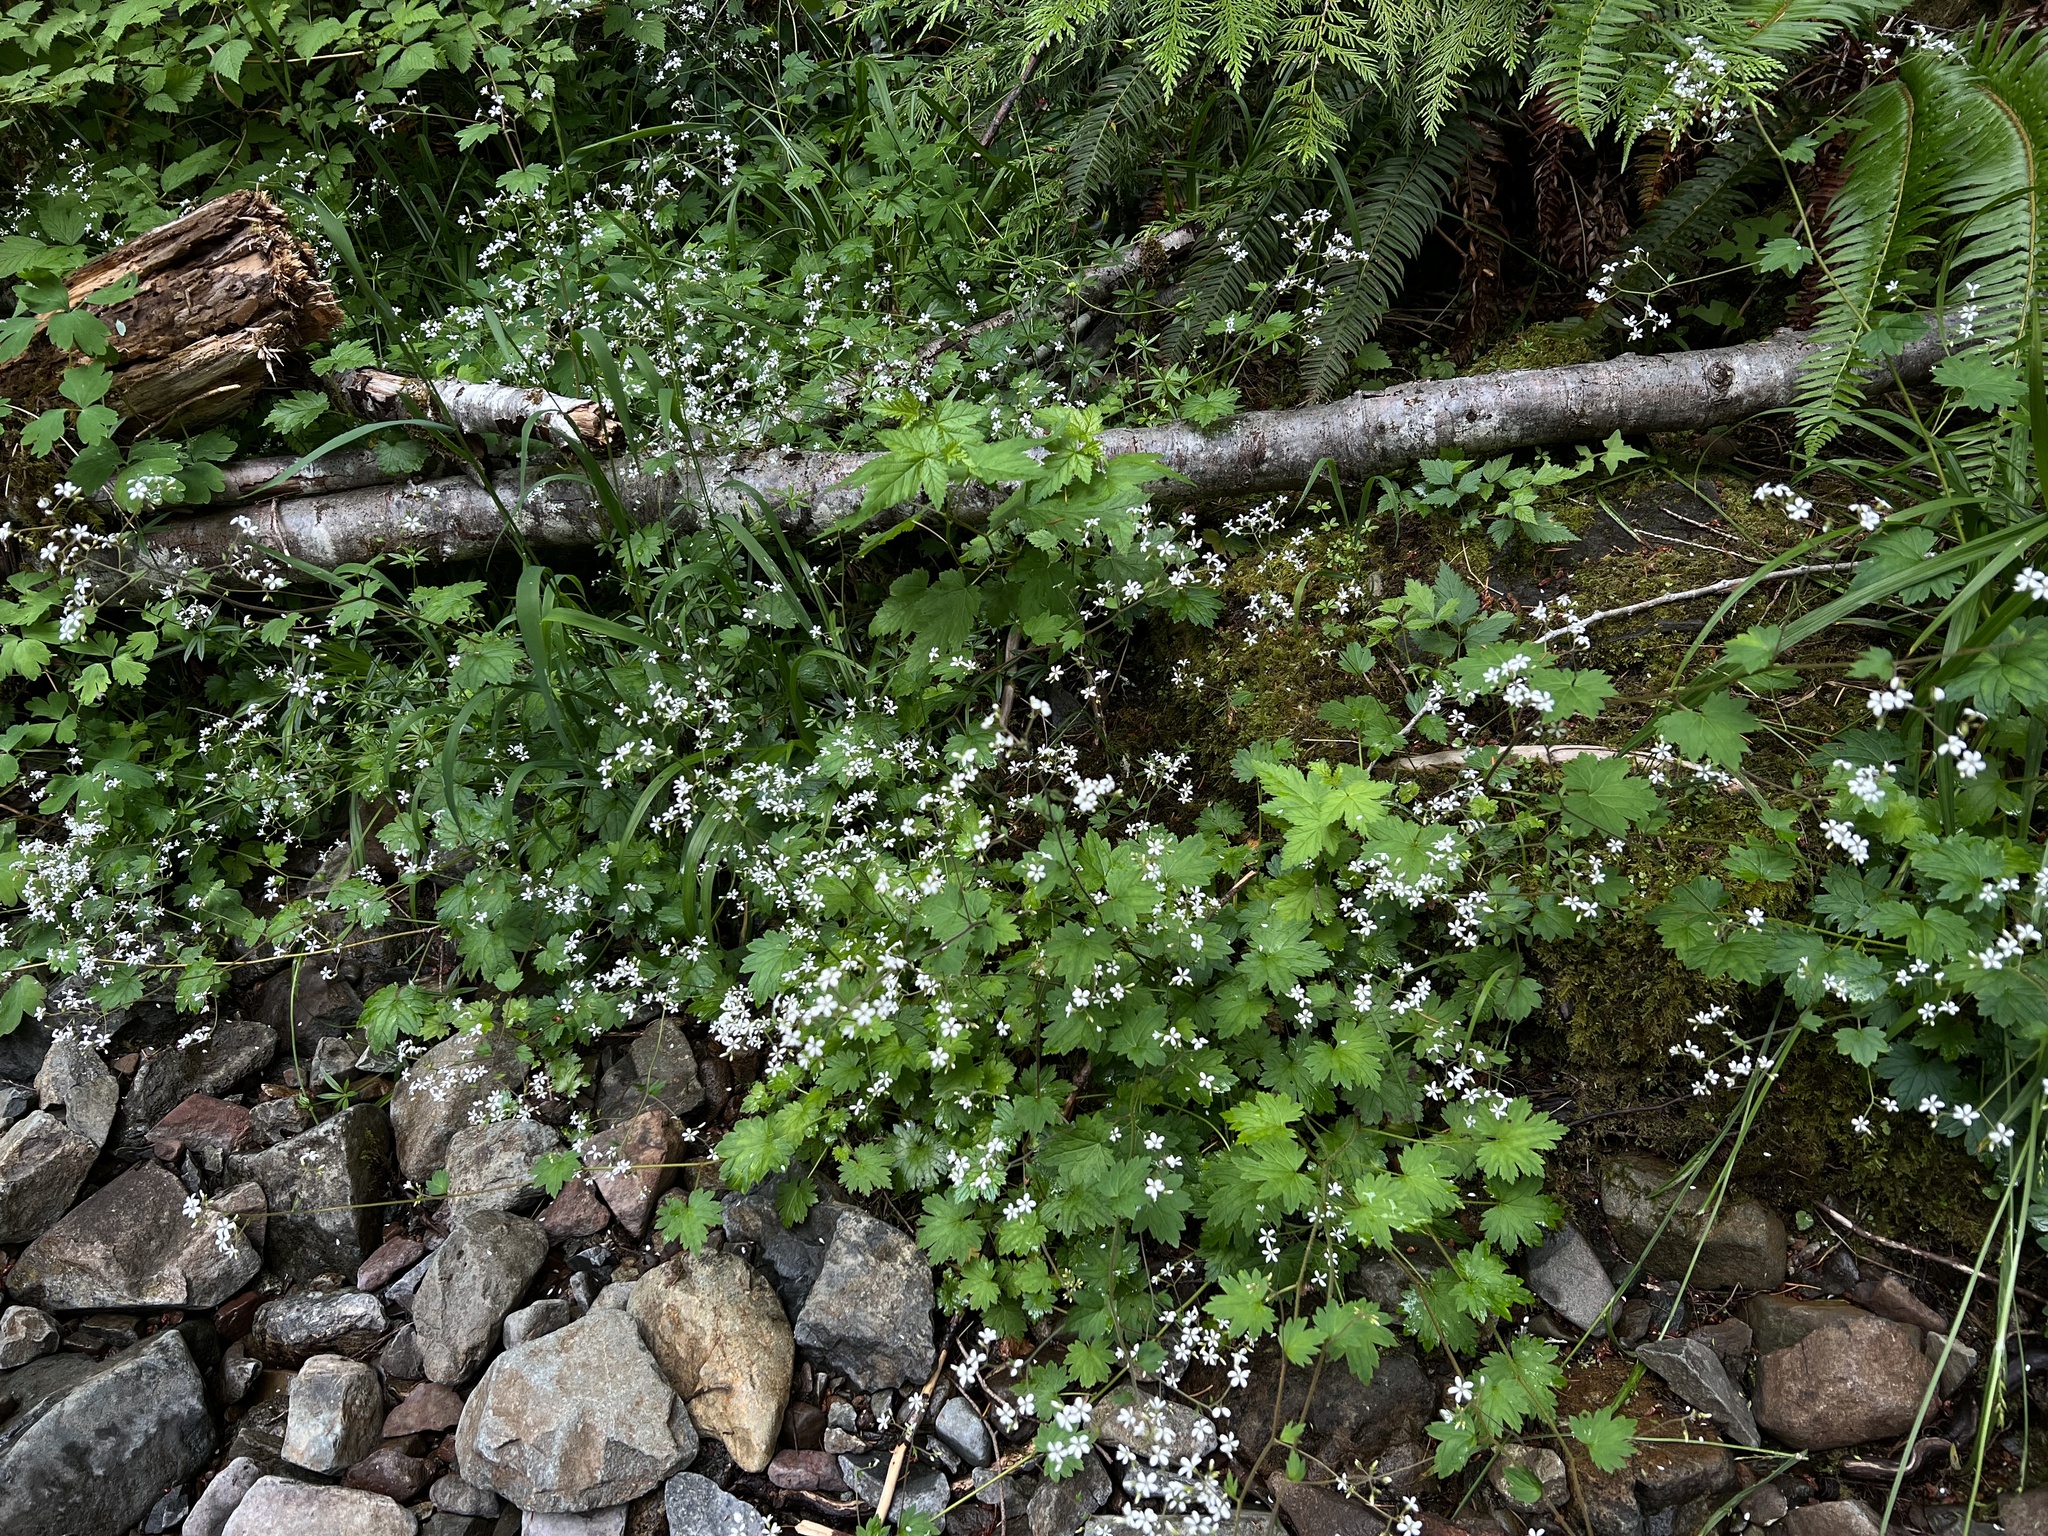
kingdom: Plantae
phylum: Tracheophyta
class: Magnoliopsida
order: Saxifragales
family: Saxifragaceae
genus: Boykinia
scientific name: Boykinia occidentalis
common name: Coast boykinia
